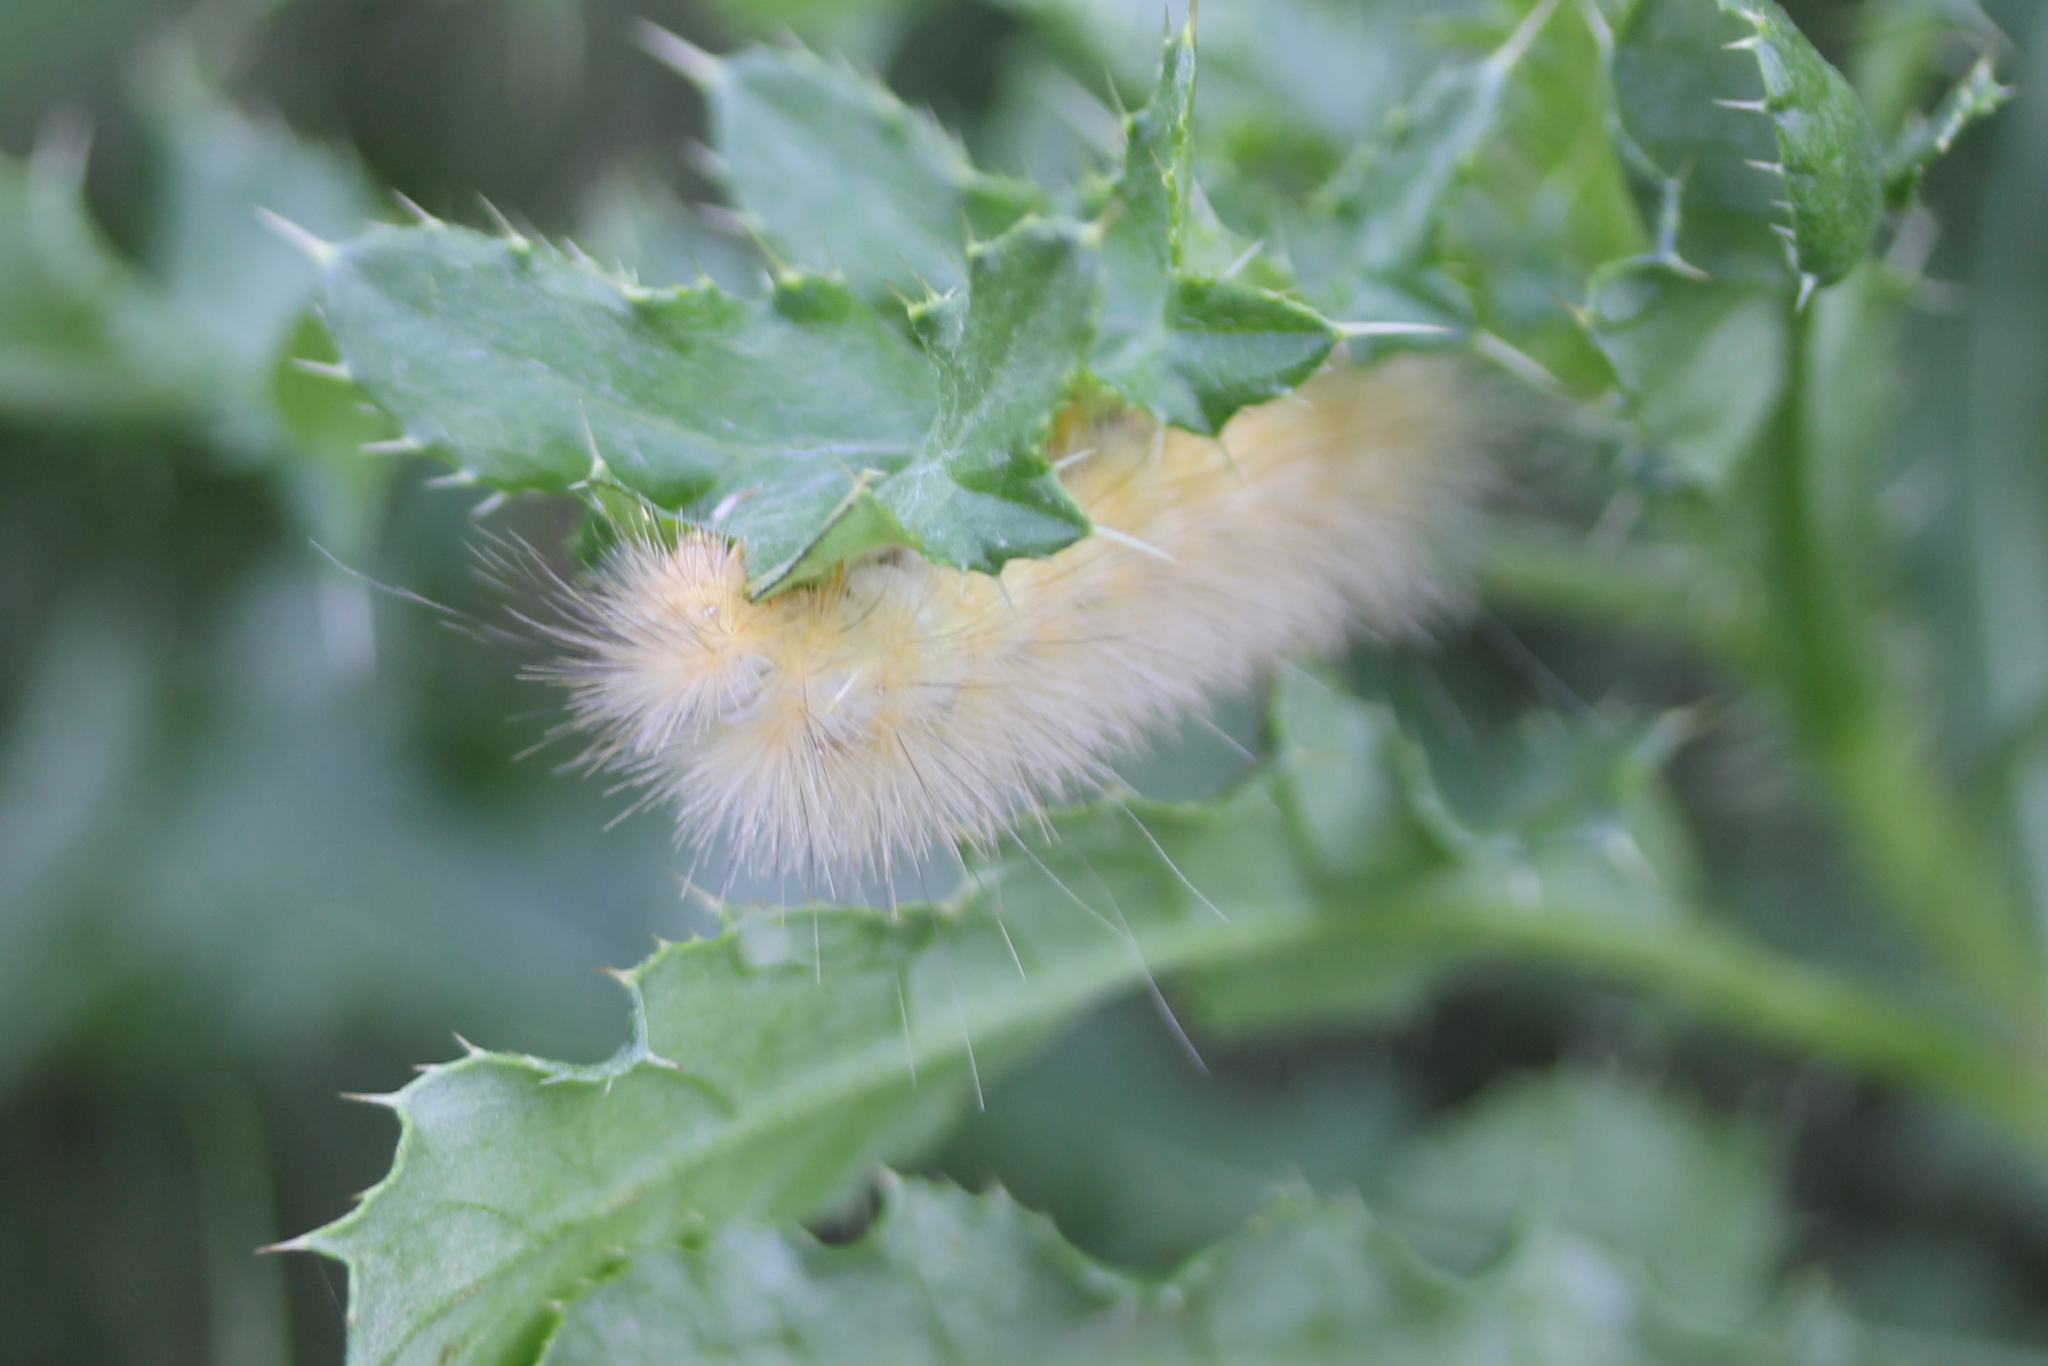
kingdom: Animalia
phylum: Arthropoda
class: Insecta
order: Lepidoptera
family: Erebidae
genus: Spilosoma
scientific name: Spilosoma virginica
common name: Virginia tiger moth
